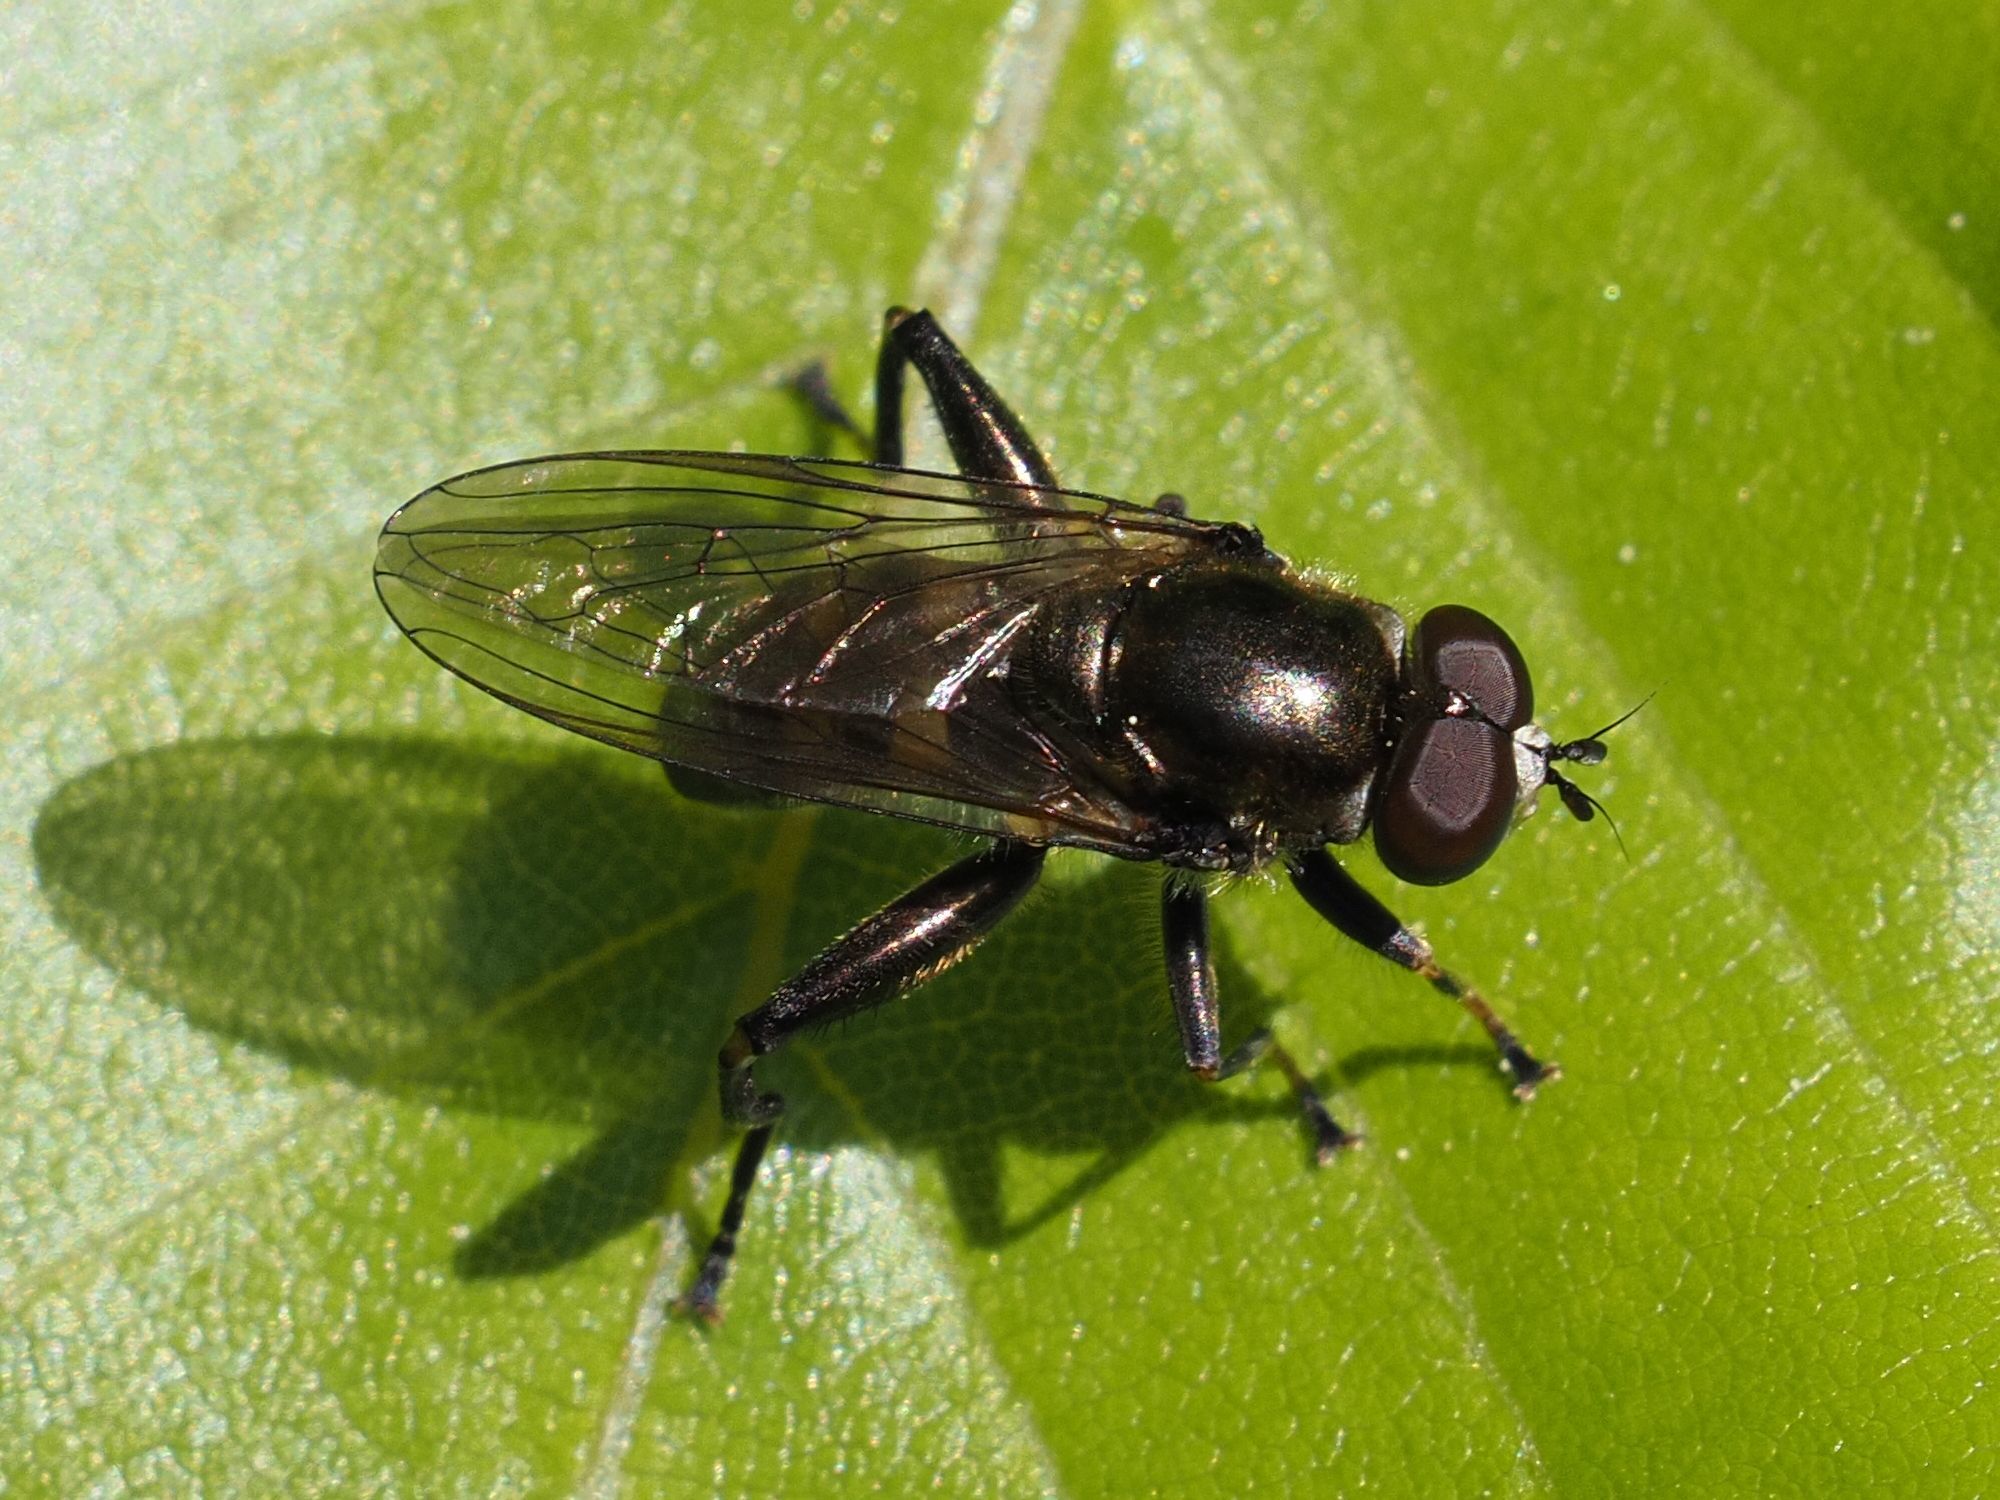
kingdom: Animalia
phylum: Arthropoda
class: Insecta
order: Diptera
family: Syrphidae
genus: Chalcosyrphus
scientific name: Chalcosyrphus nemorum
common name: Dusky-banded forest fly
